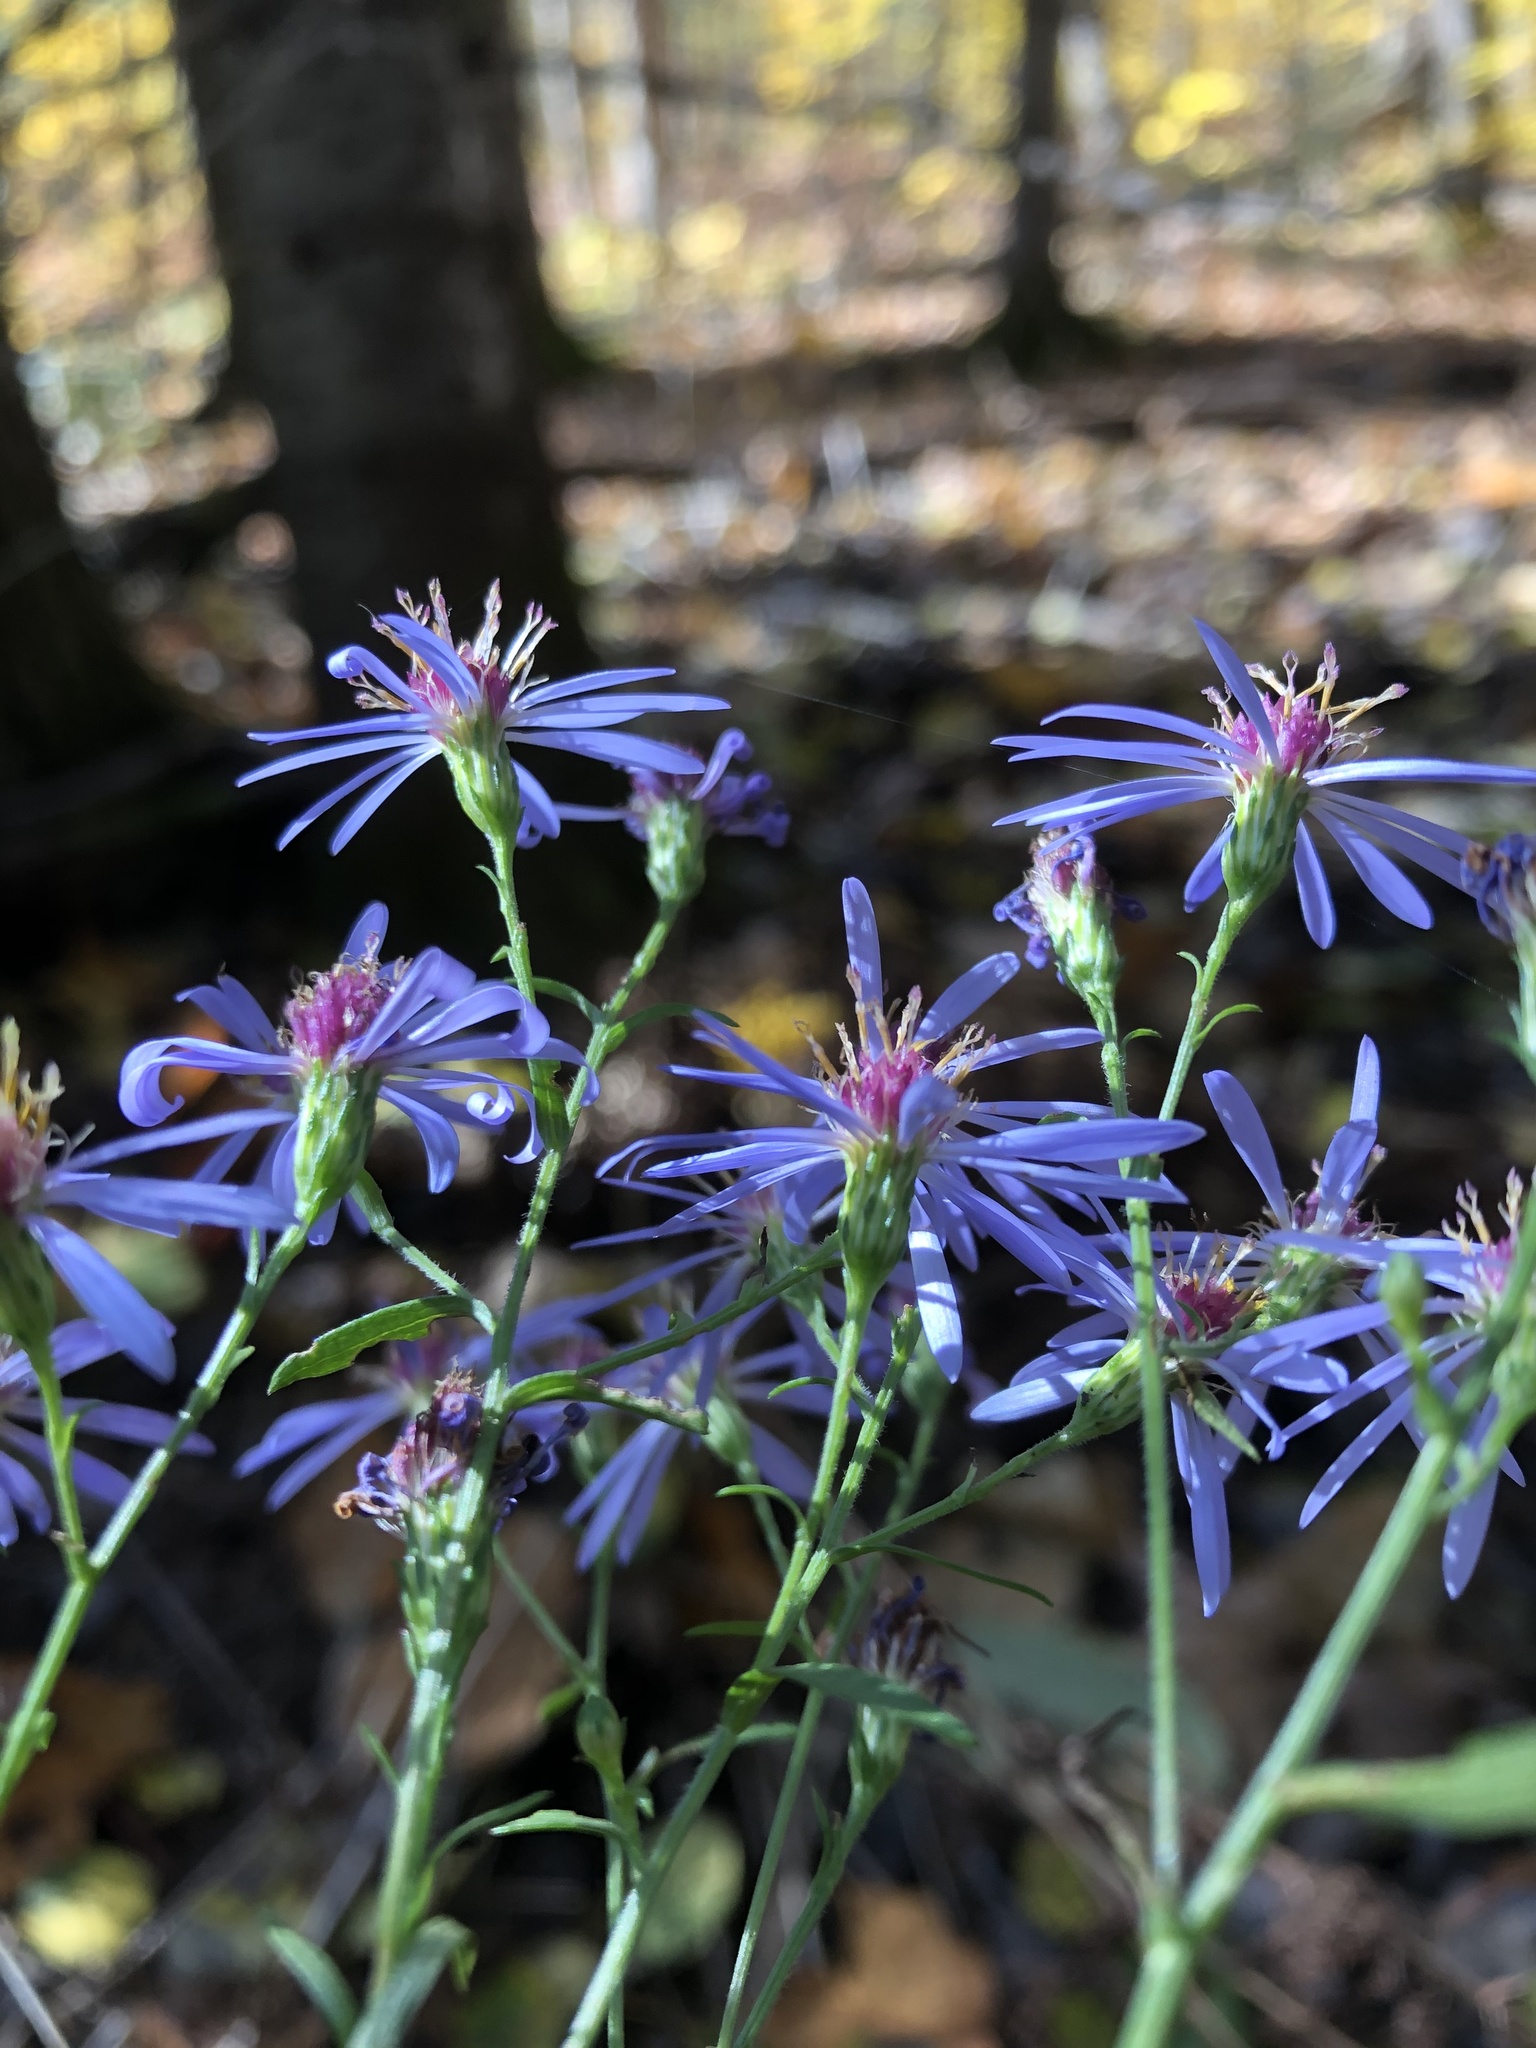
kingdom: Plantae
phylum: Tracheophyta
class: Magnoliopsida
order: Asterales
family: Asteraceae
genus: Symphyotrichum
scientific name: Symphyotrichum ciliolatum
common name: Fringed blue aster
